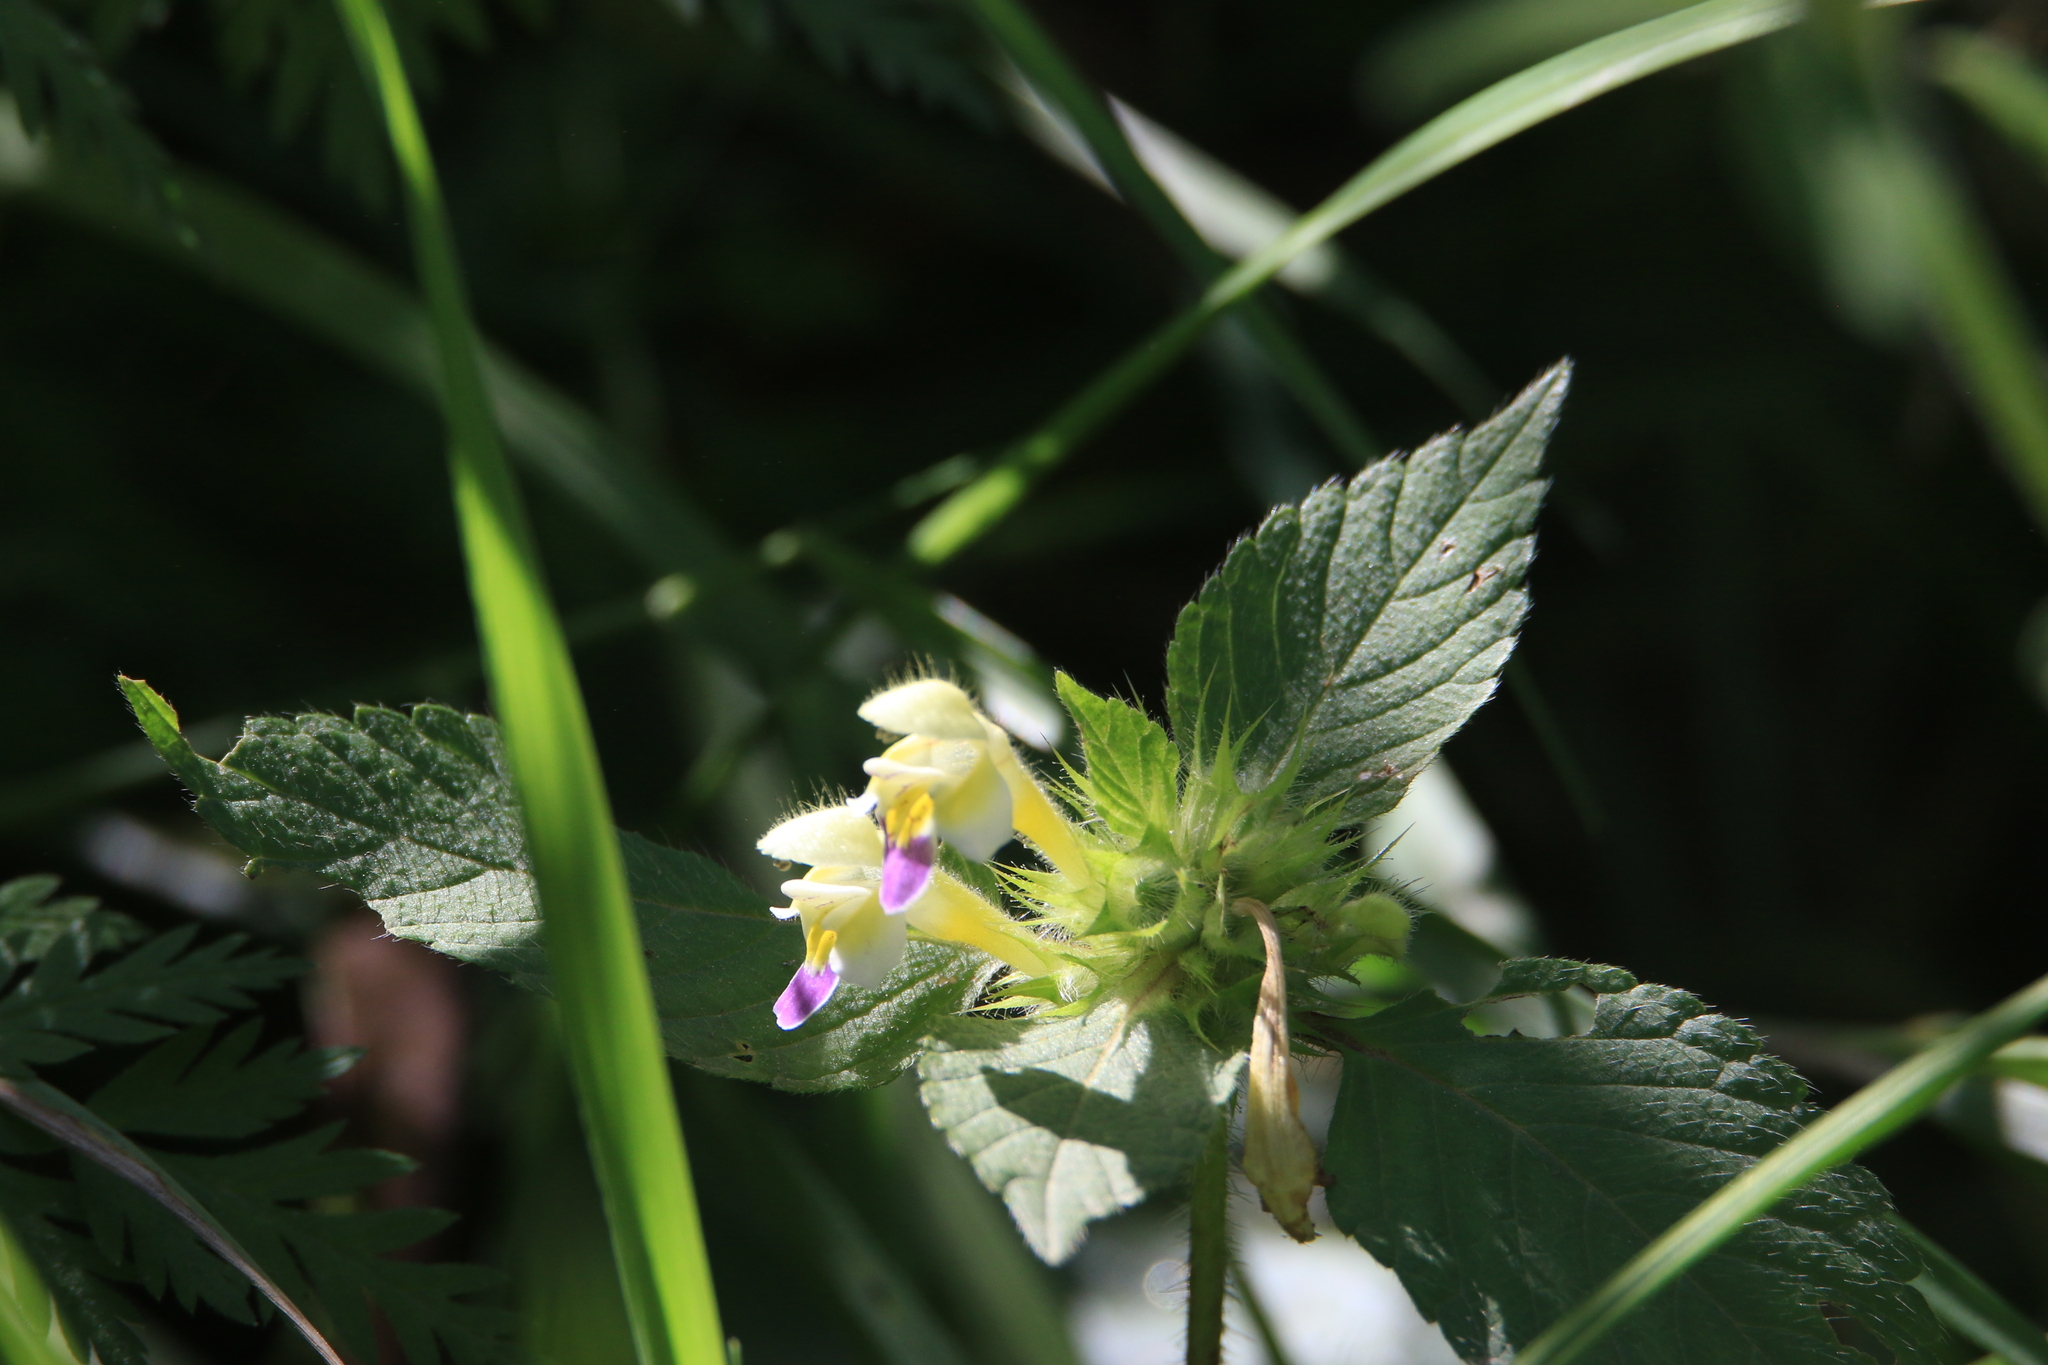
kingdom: Plantae
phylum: Tracheophyta
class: Magnoliopsida
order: Lamiales
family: Lamiaceae
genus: Galeopsis
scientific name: Galeopsis speciosa
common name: Large-flowered hemp-nettle
